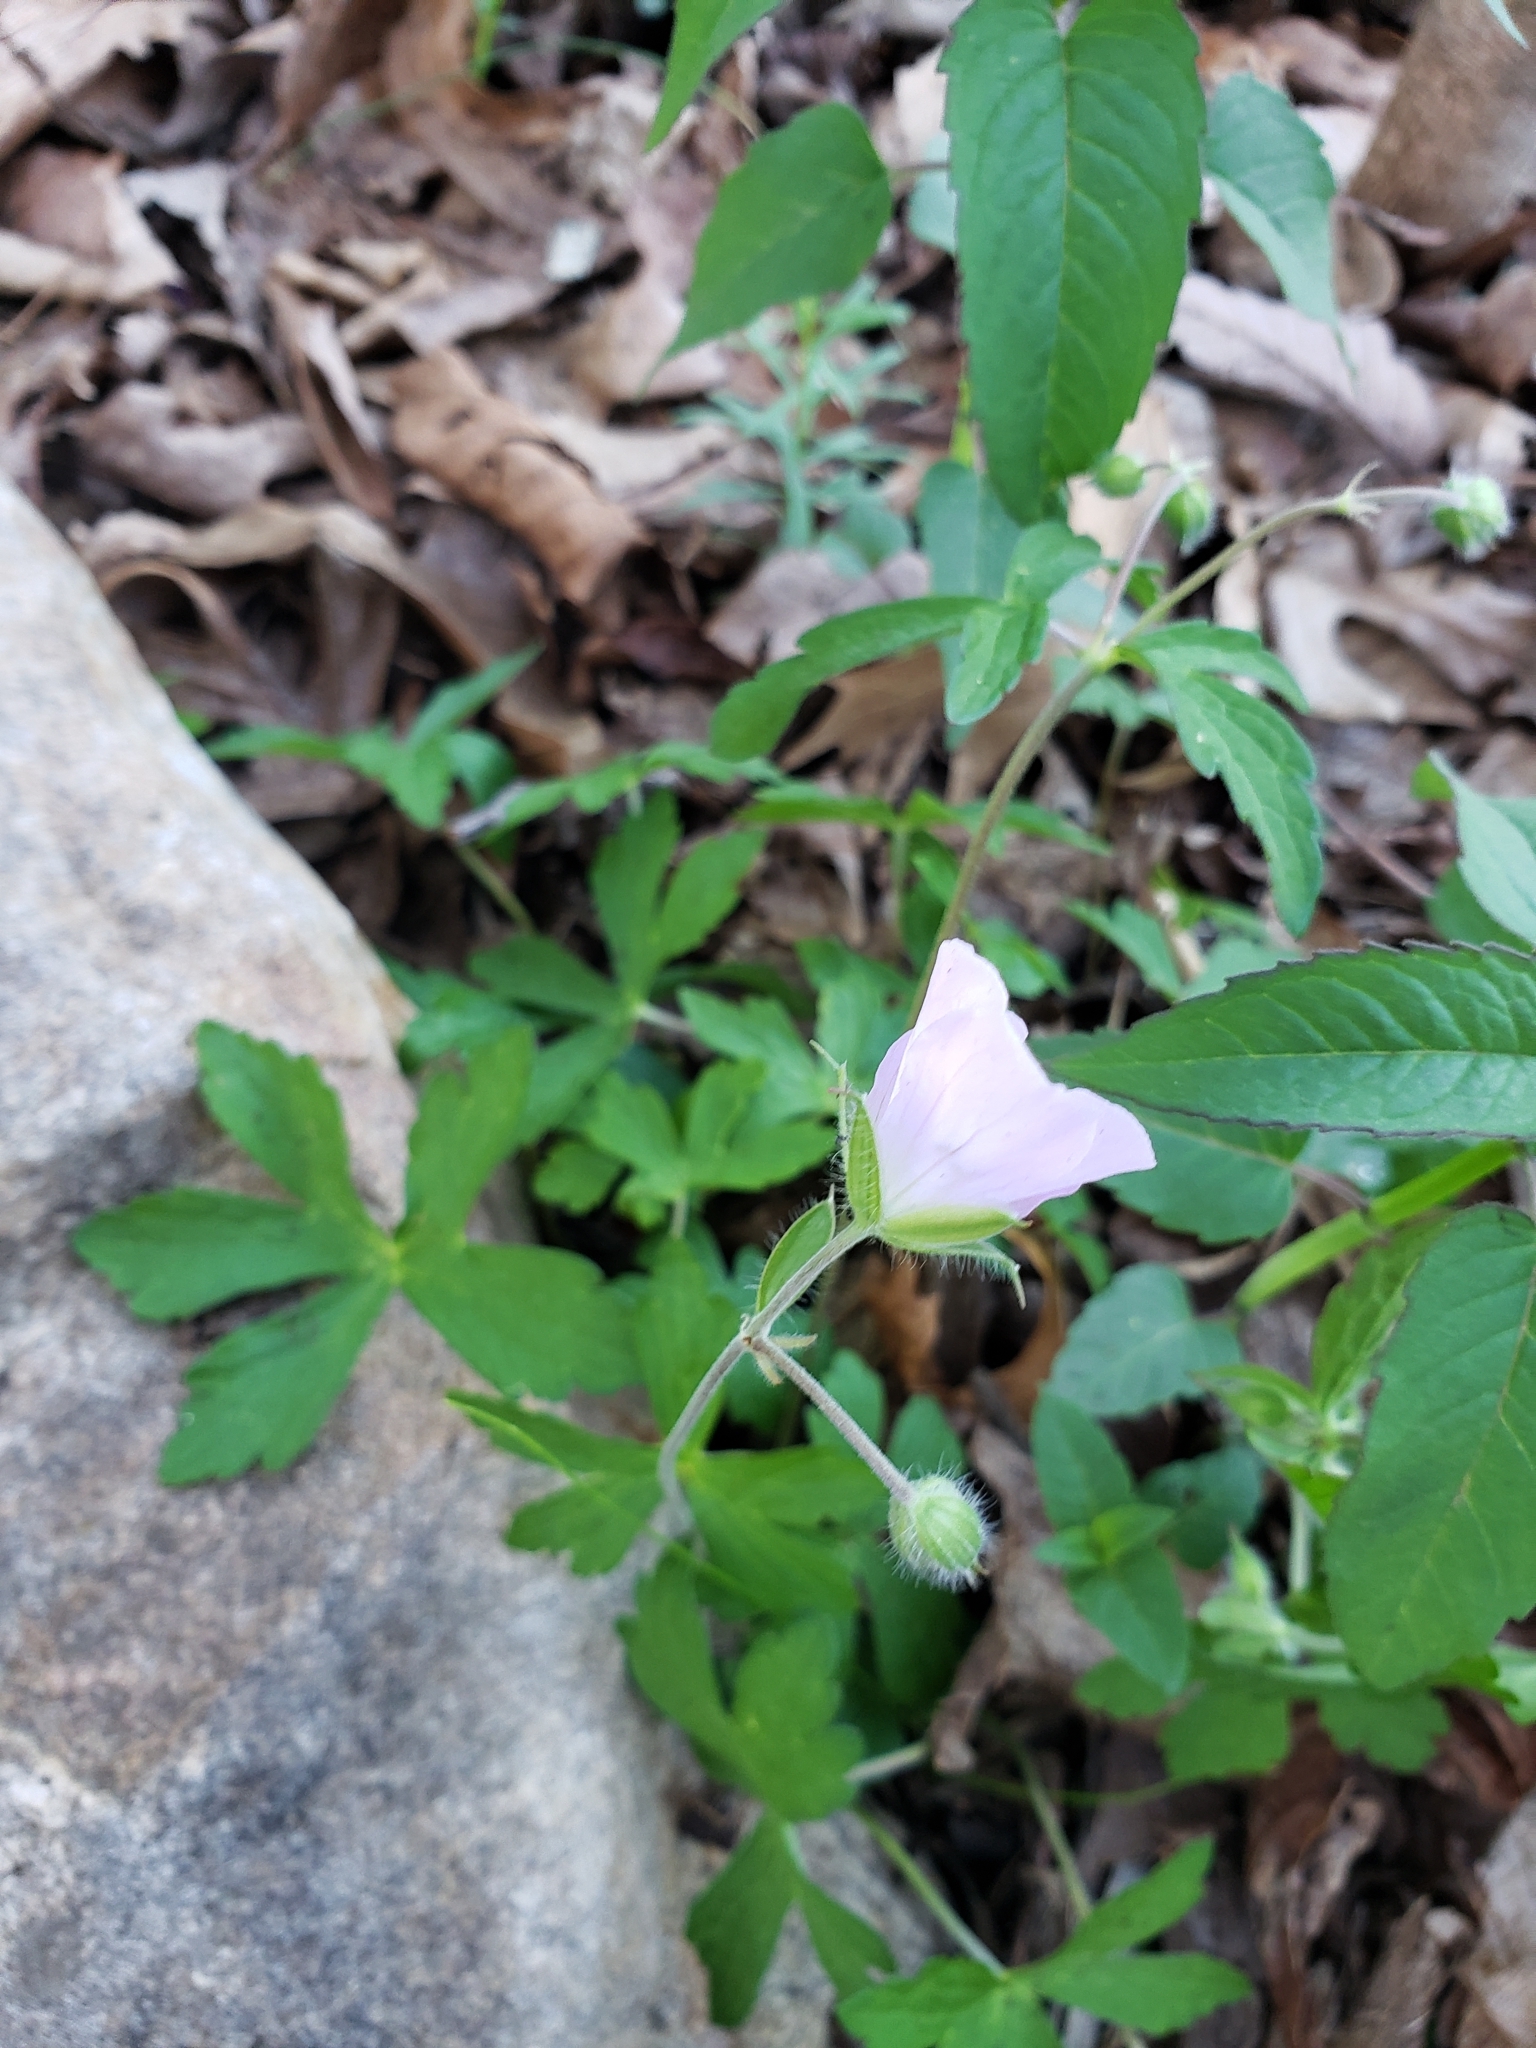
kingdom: Plantae
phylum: Tracheophyta
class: Magnoliopsida
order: Geraniales
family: Geraniaceae
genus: Geranium
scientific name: Geranium maculatum
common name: Spotted geranium
